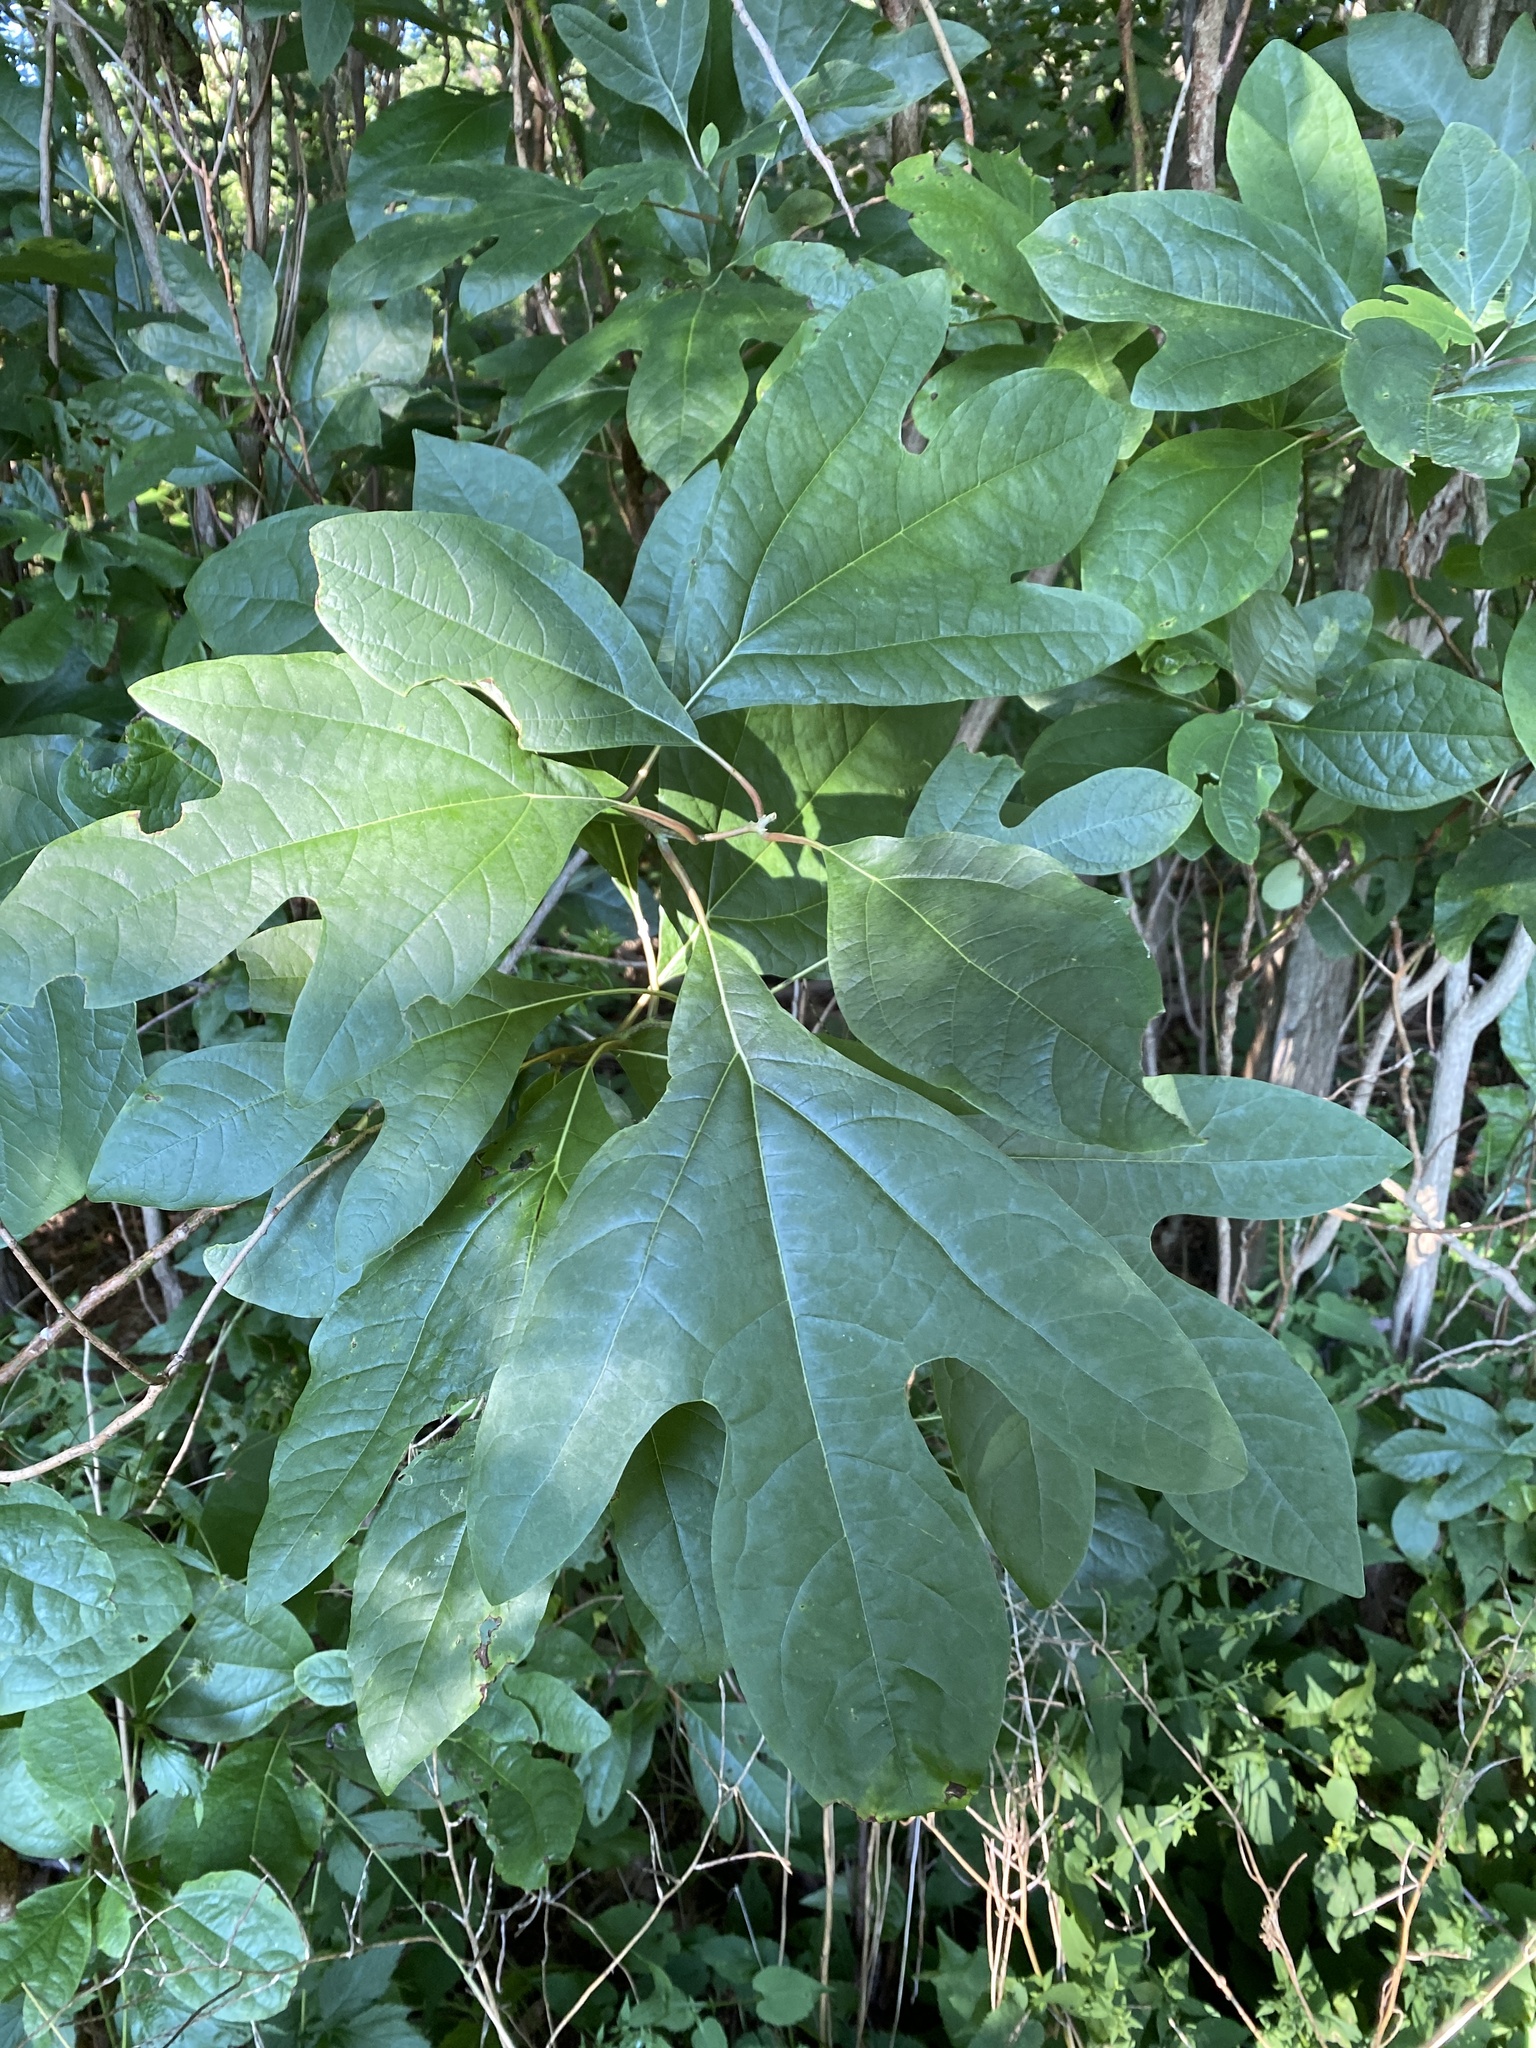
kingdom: Plantae
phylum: Tracheophyta
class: Magnoliopsida
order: Laurales
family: Lauraceae
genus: Sassafras
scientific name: Sassafras albidum
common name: Sassafras
